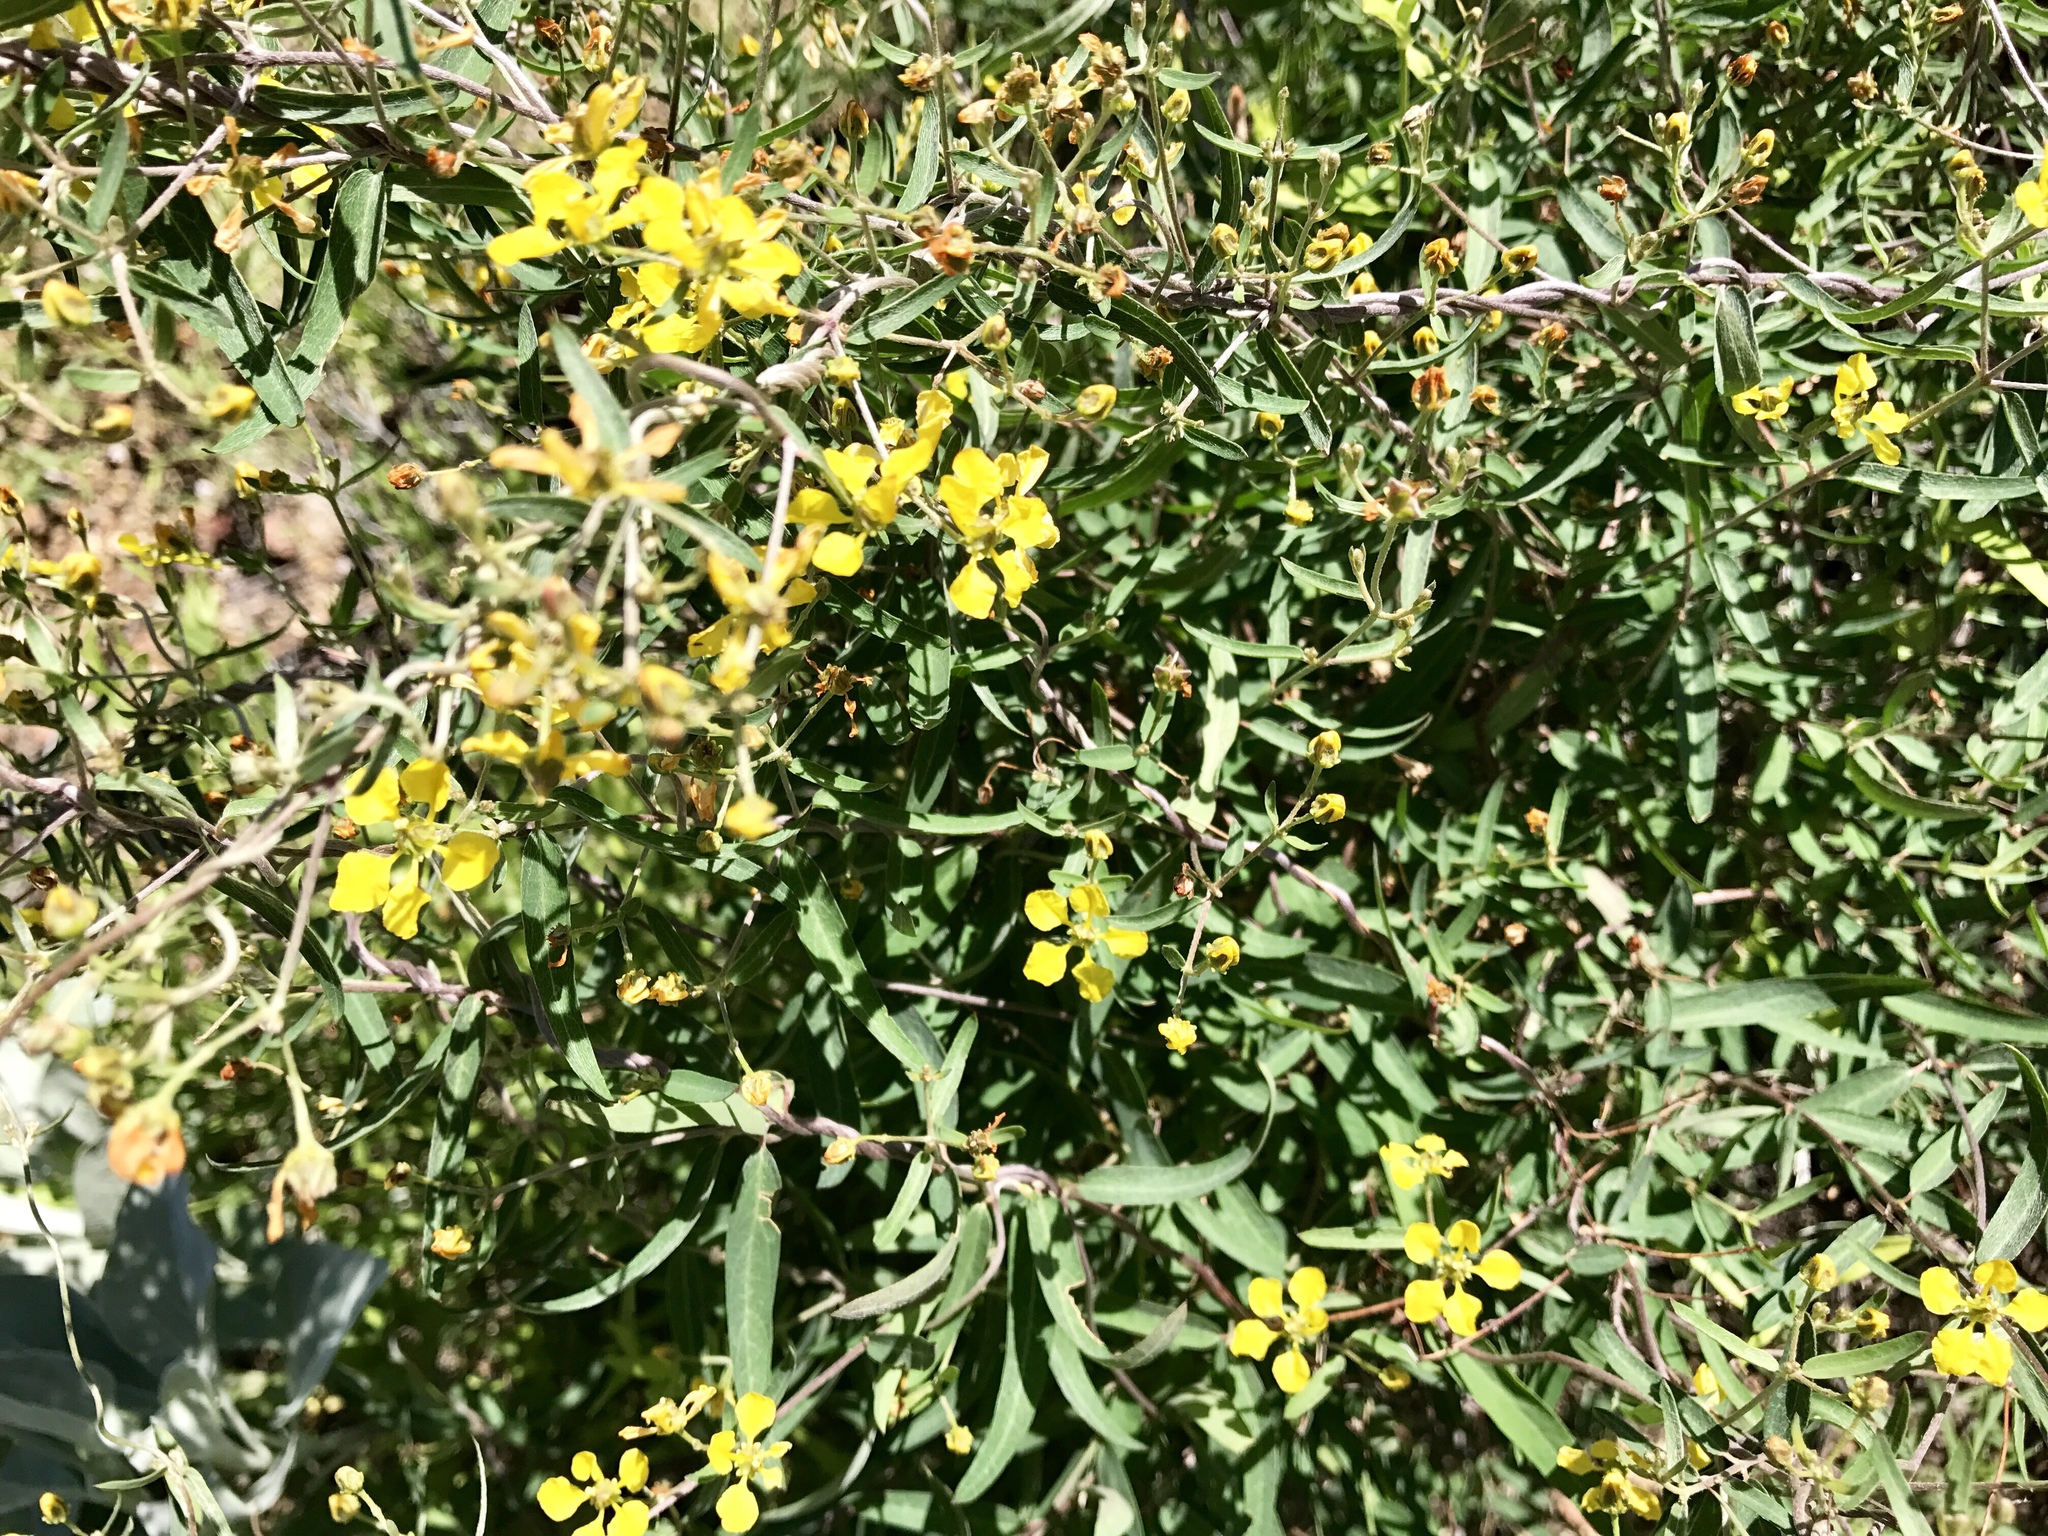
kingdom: Plantae
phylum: Tracheophyta
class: Magnoliopsida
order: Malpighiales
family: Malpighiaceae
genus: Cottsia
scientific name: Cottsia gracilis
